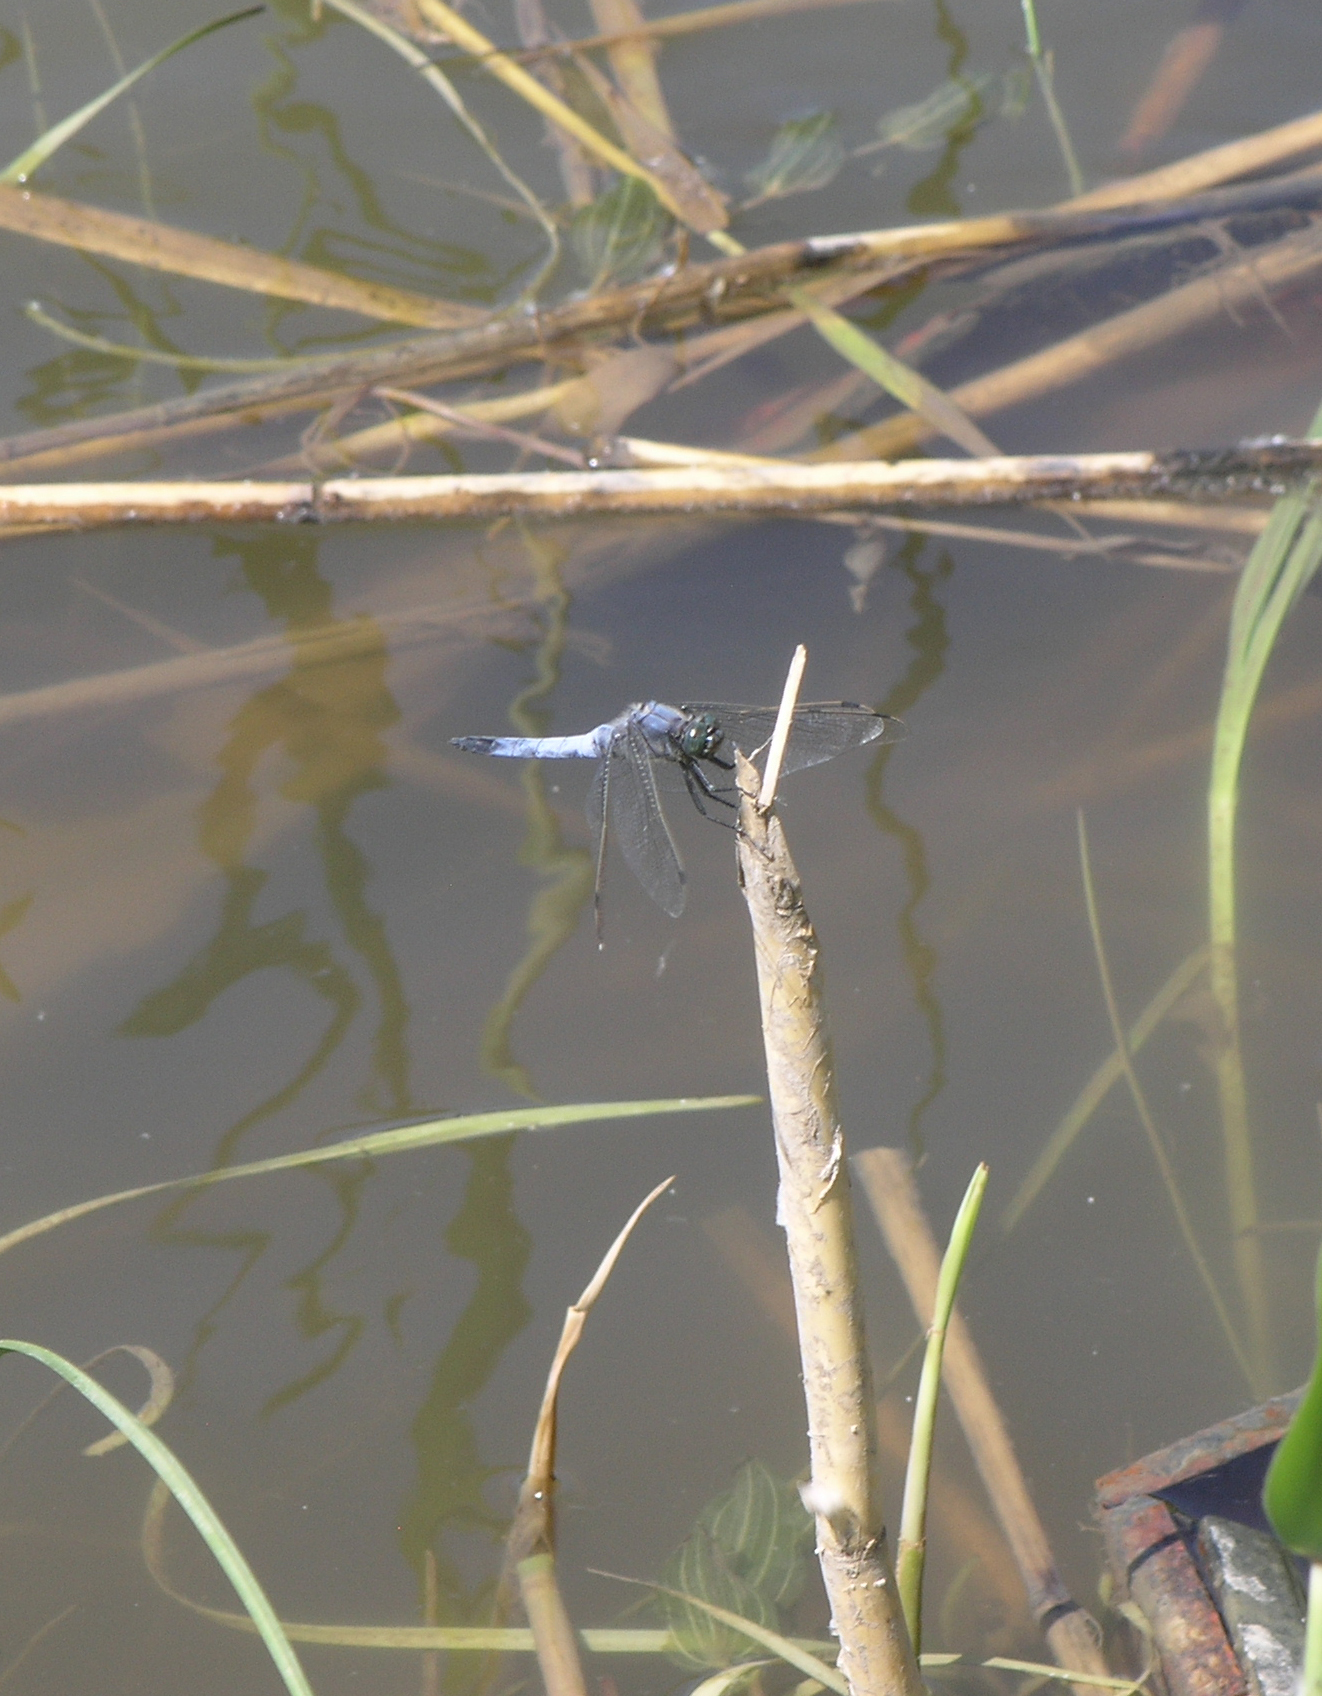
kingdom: Animalia
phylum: Arthropoda
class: Insecta
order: Odonata
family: Libellulidae
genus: Orthetrum
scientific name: Orthetrum cancellatum
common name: Black-tailed skimmer
